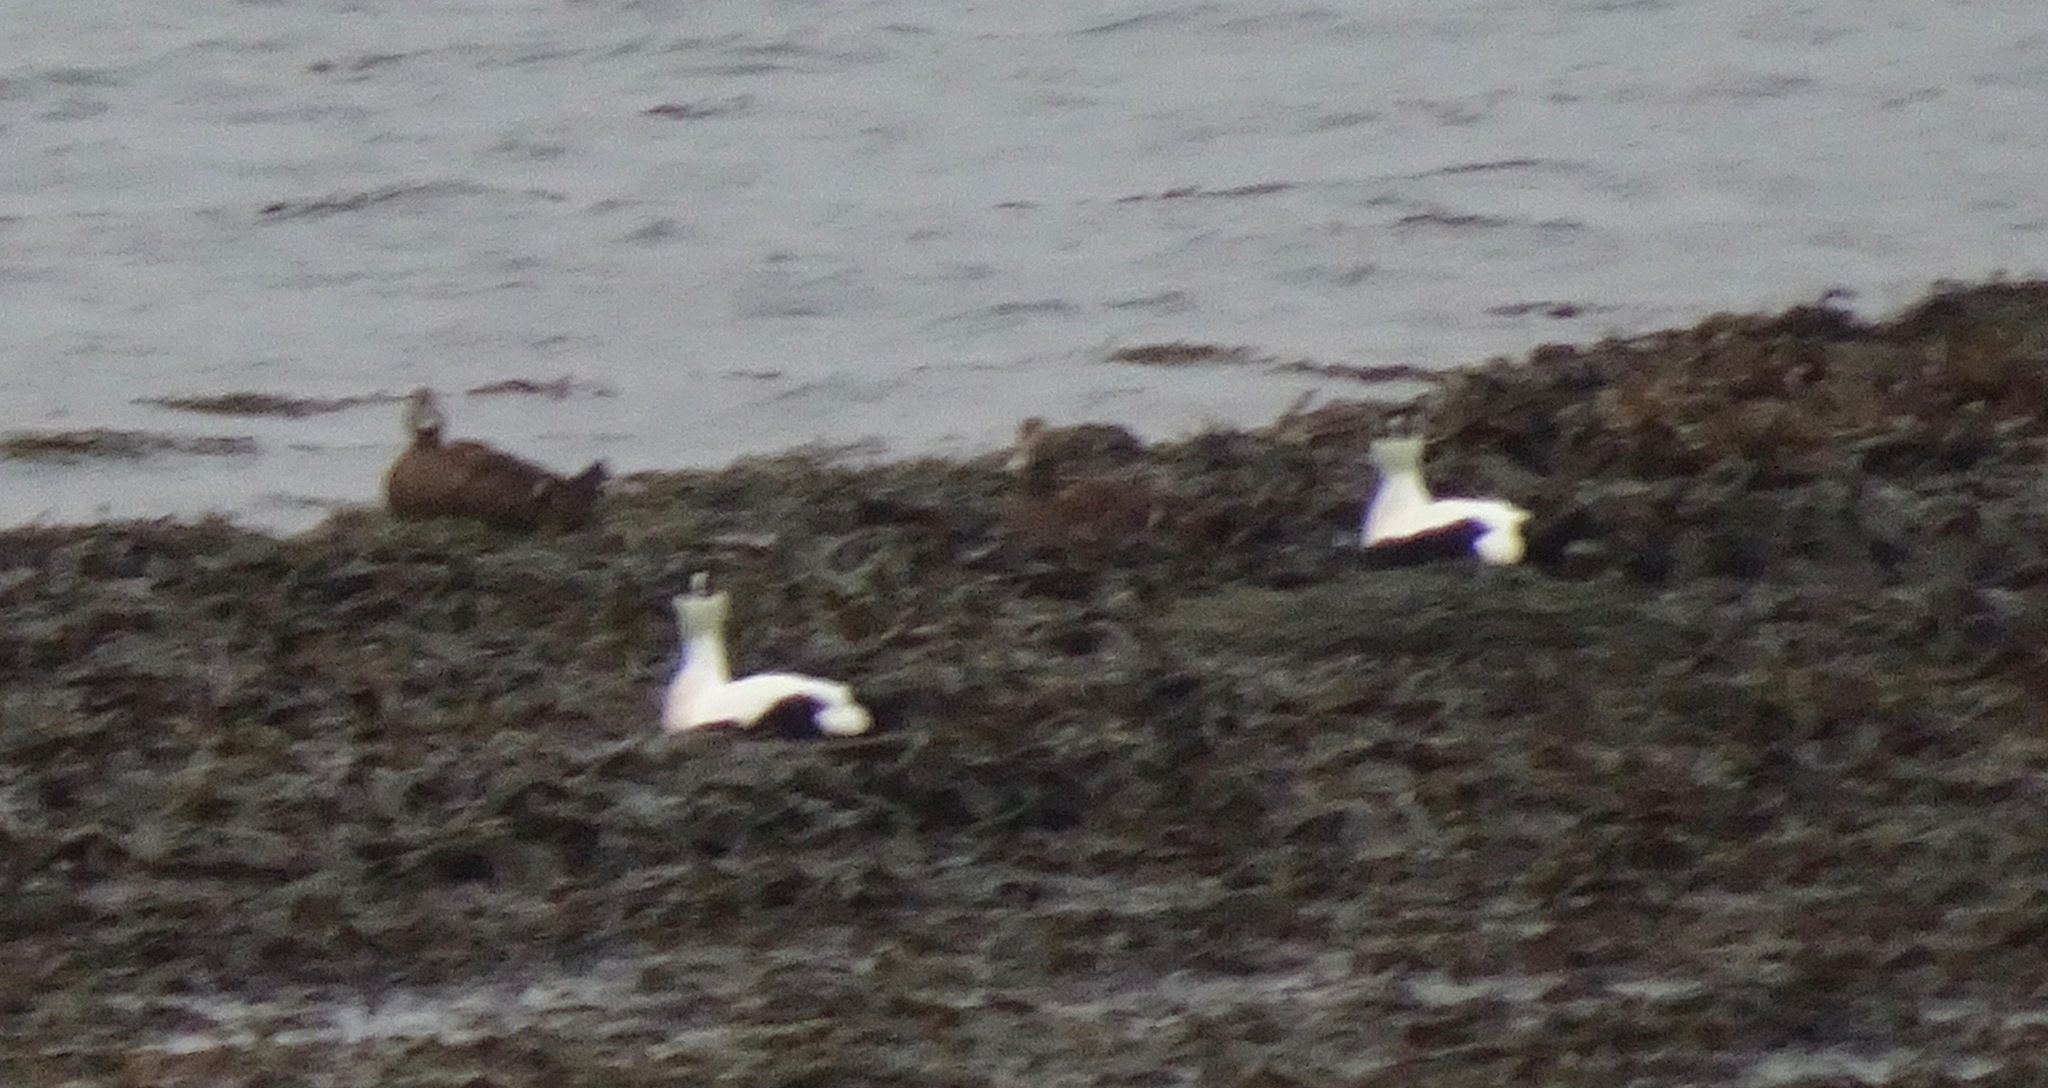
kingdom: Animalia
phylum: Chordata
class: Aves
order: Anseriformes
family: Anatidae
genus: Somateria
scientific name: Somateria mollissima
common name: Common eider
